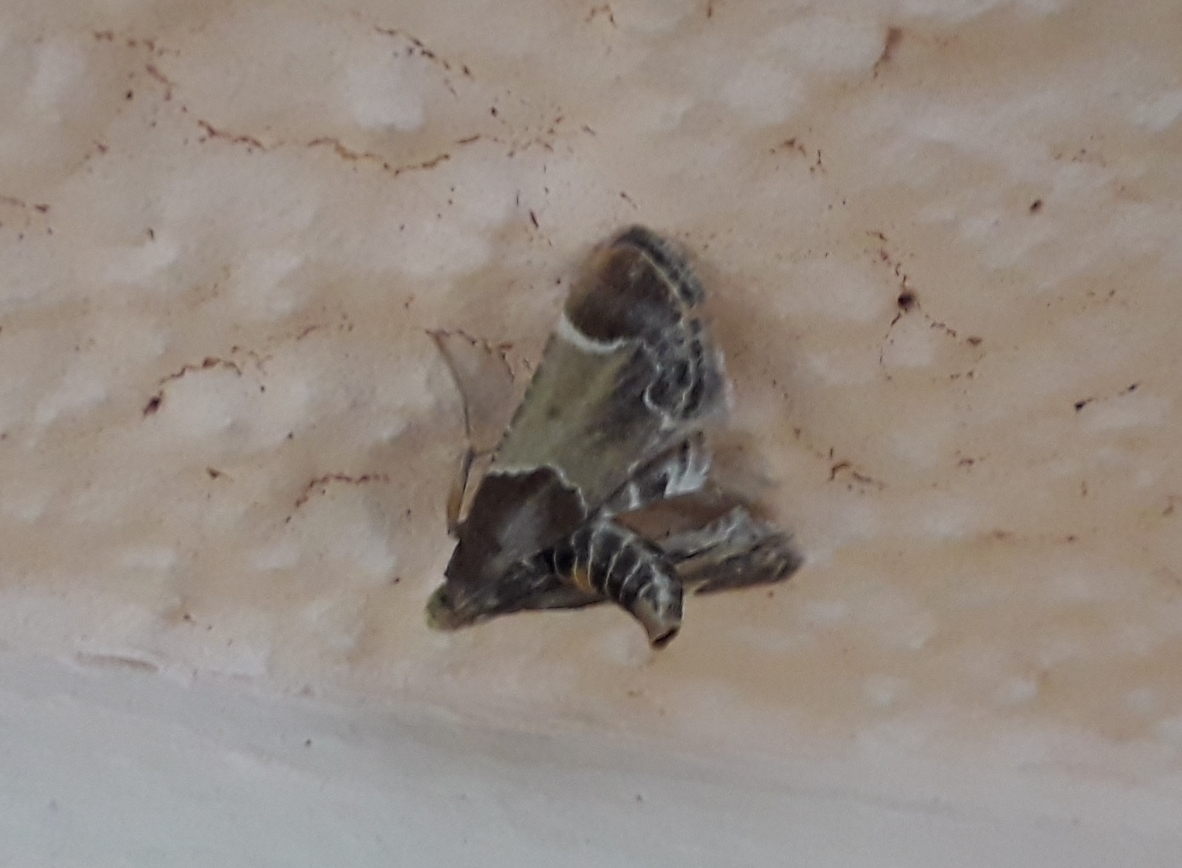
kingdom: Animalia
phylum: Arthropoda
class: Insecta
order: Lepidoptera
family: Pyralidae
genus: Pyralis
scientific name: Pyralis farinalis
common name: Meal moth
